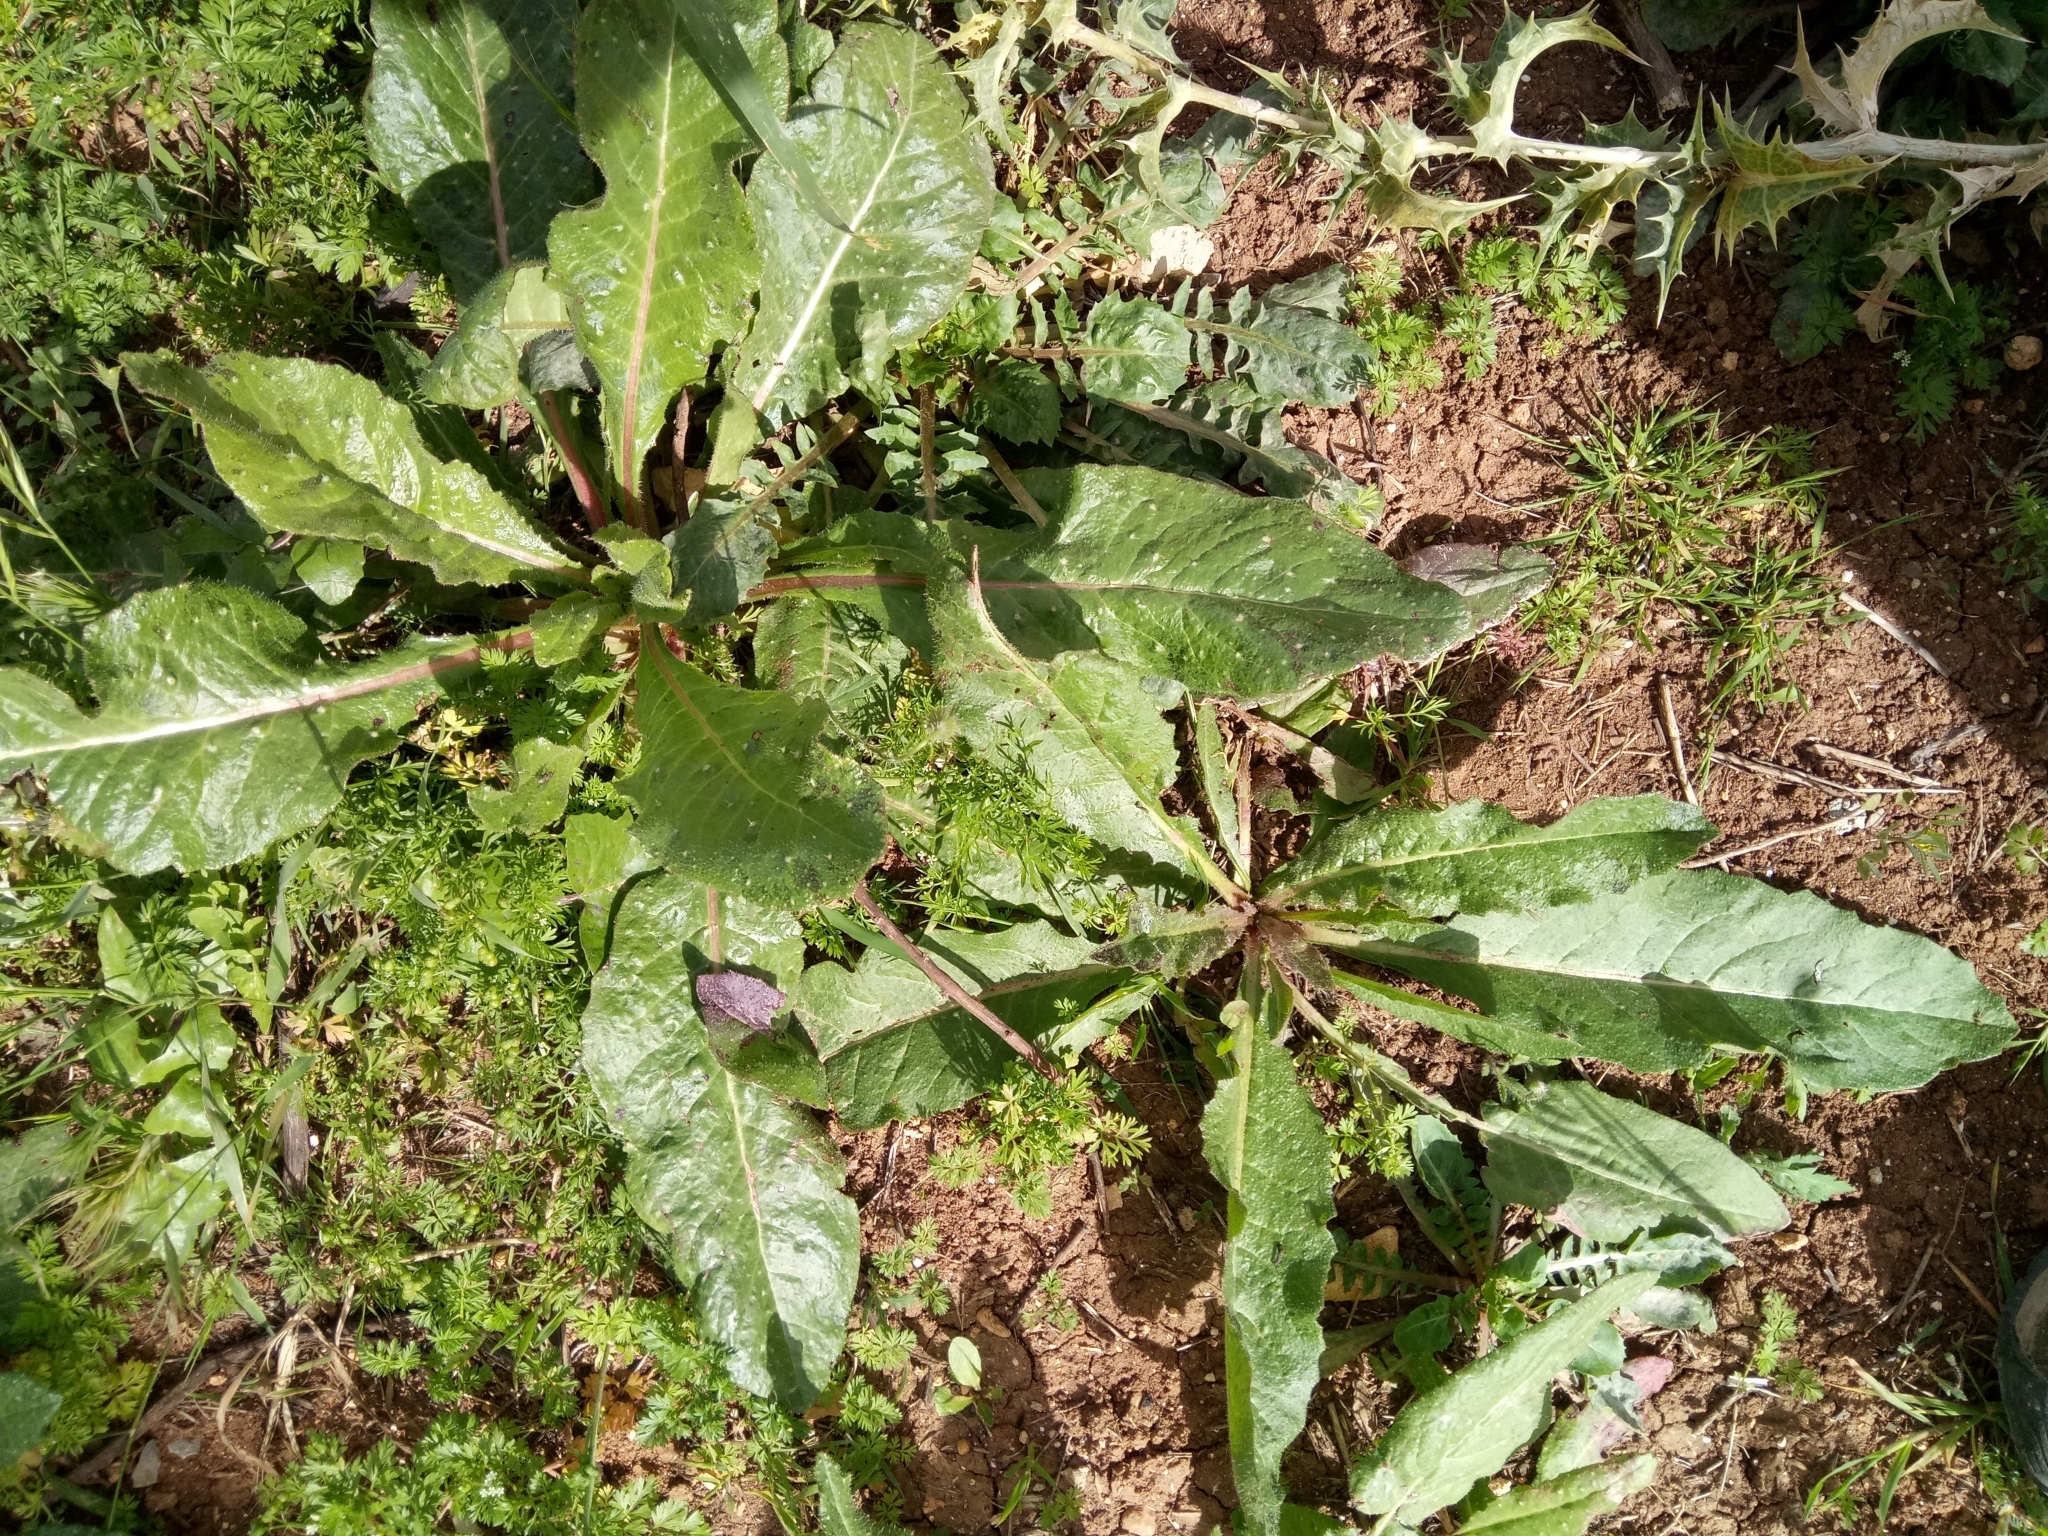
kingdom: Plantae
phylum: Tracheophyta
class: Magnoliopsida
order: Asterales
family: Asteraceae
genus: Helminthotheca
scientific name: Helminthotheca echioides
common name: Ox-tongue
